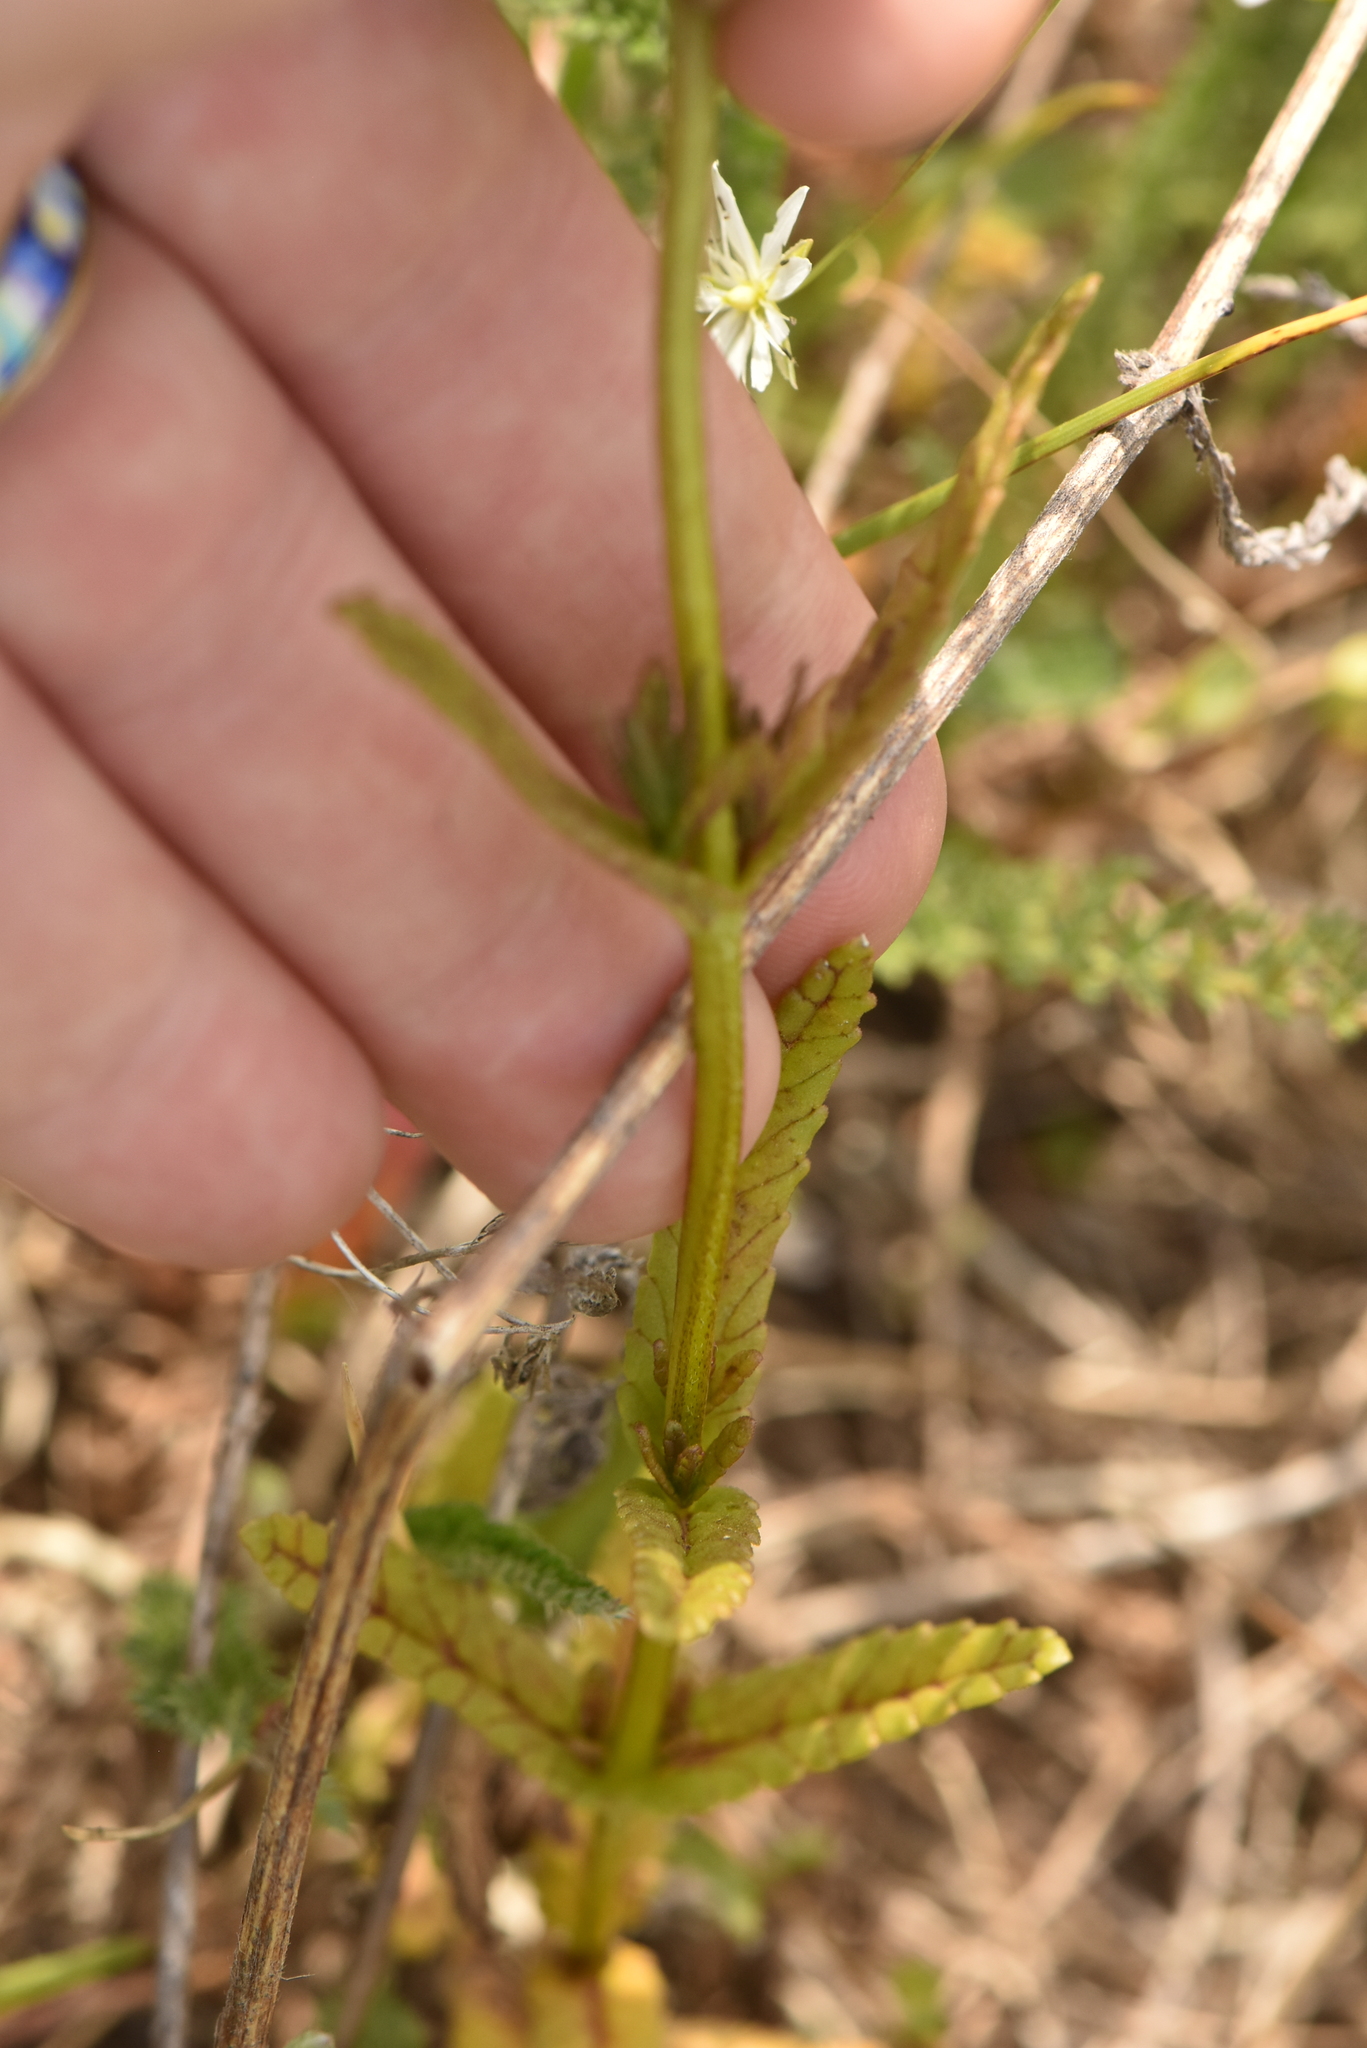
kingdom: Plantae
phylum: Tracheophyta
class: Magnoliopsida
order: Lamiales
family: Orobanchaceae
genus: Rhinanthus
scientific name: Rhinanthus minor
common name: Yellow-rattle
